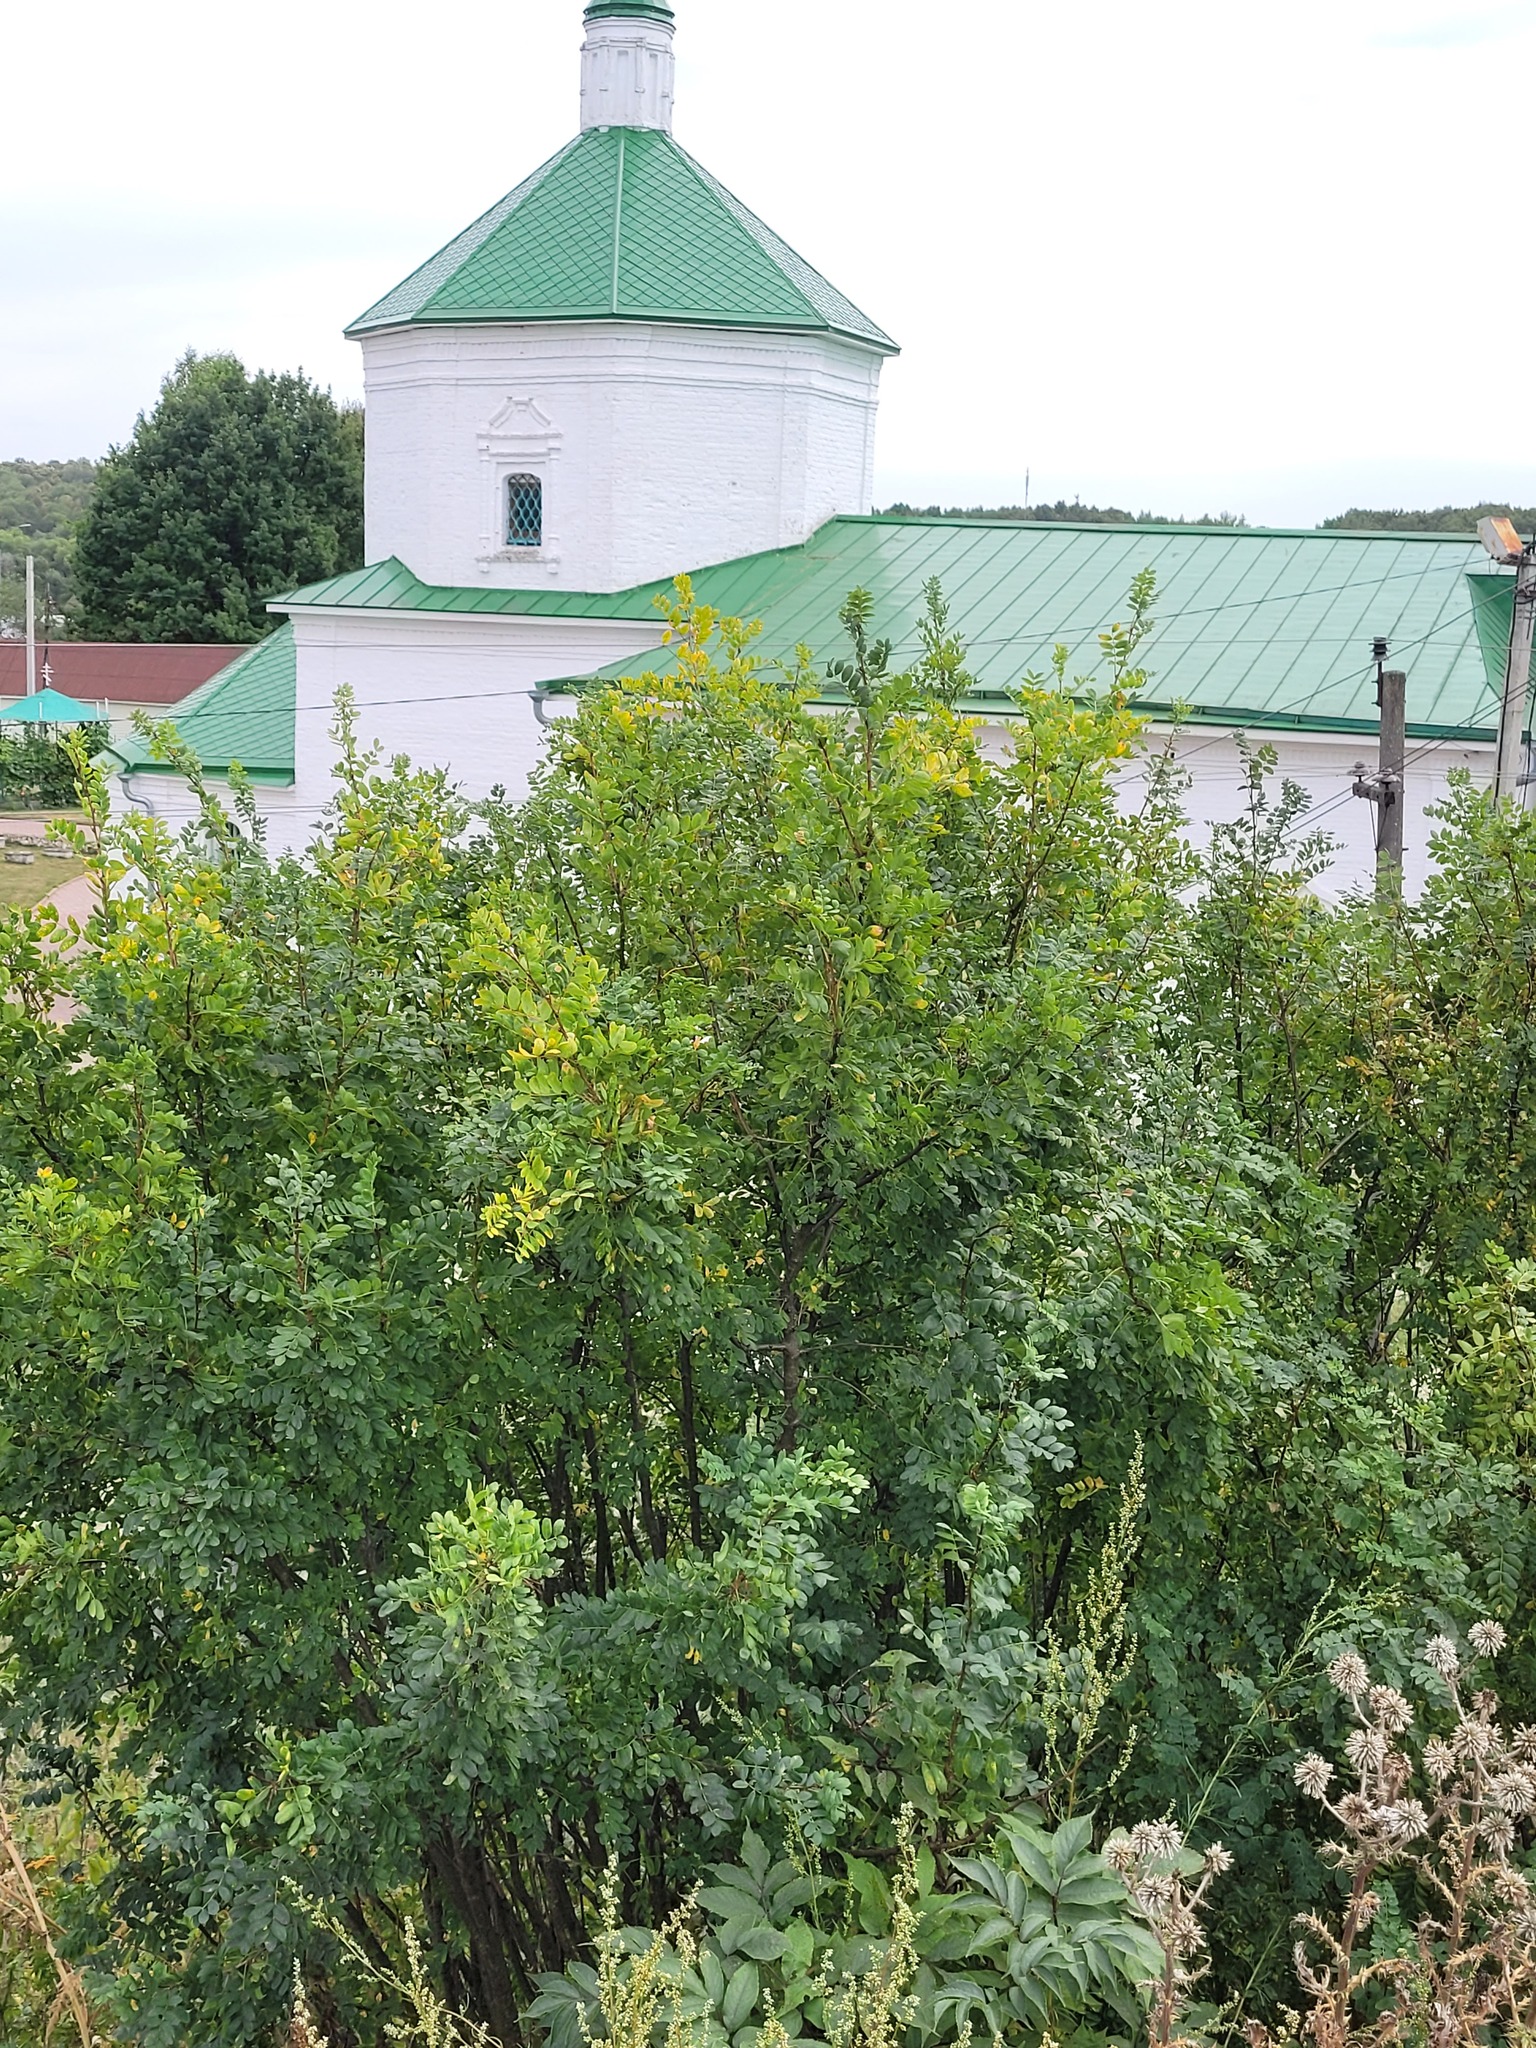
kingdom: Plantae
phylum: Tracheophyta
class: Magnoliopsida
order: Fabales
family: Fabaceae
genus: Caragana
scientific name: Caragana arborescens
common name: Siberian peashrub
